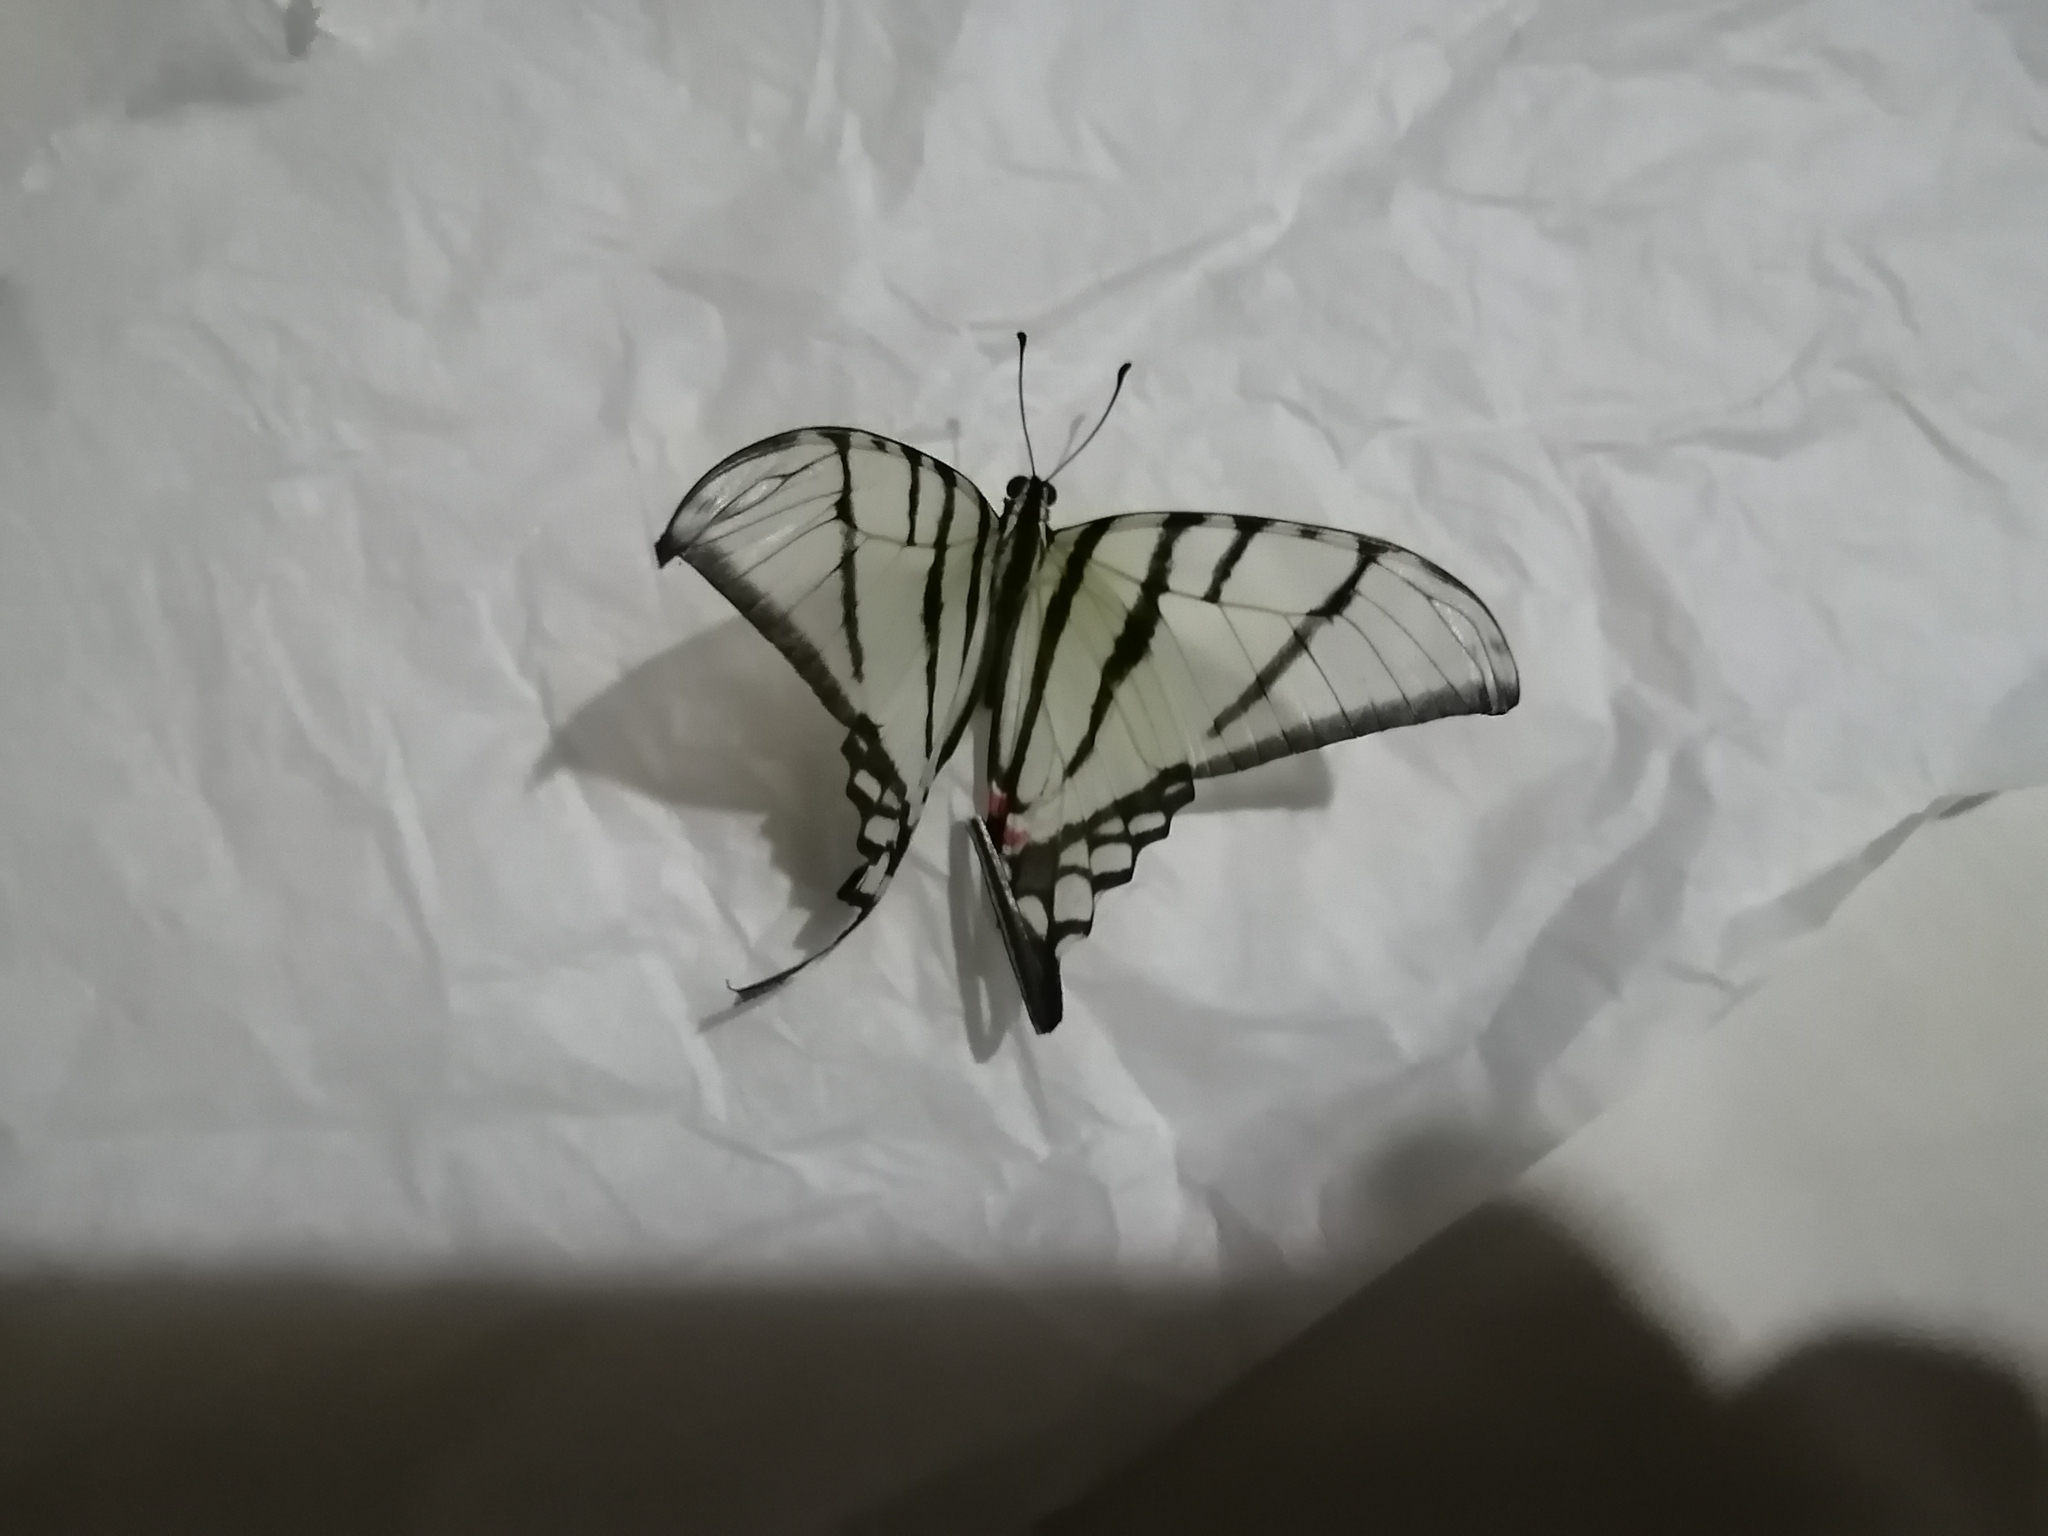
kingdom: Animalia
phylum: Arthropoda
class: Insecta
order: Lepidoptera
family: Papilionidae
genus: Protographium
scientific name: Protographium epidaus
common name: Mexican kite swallowtail
